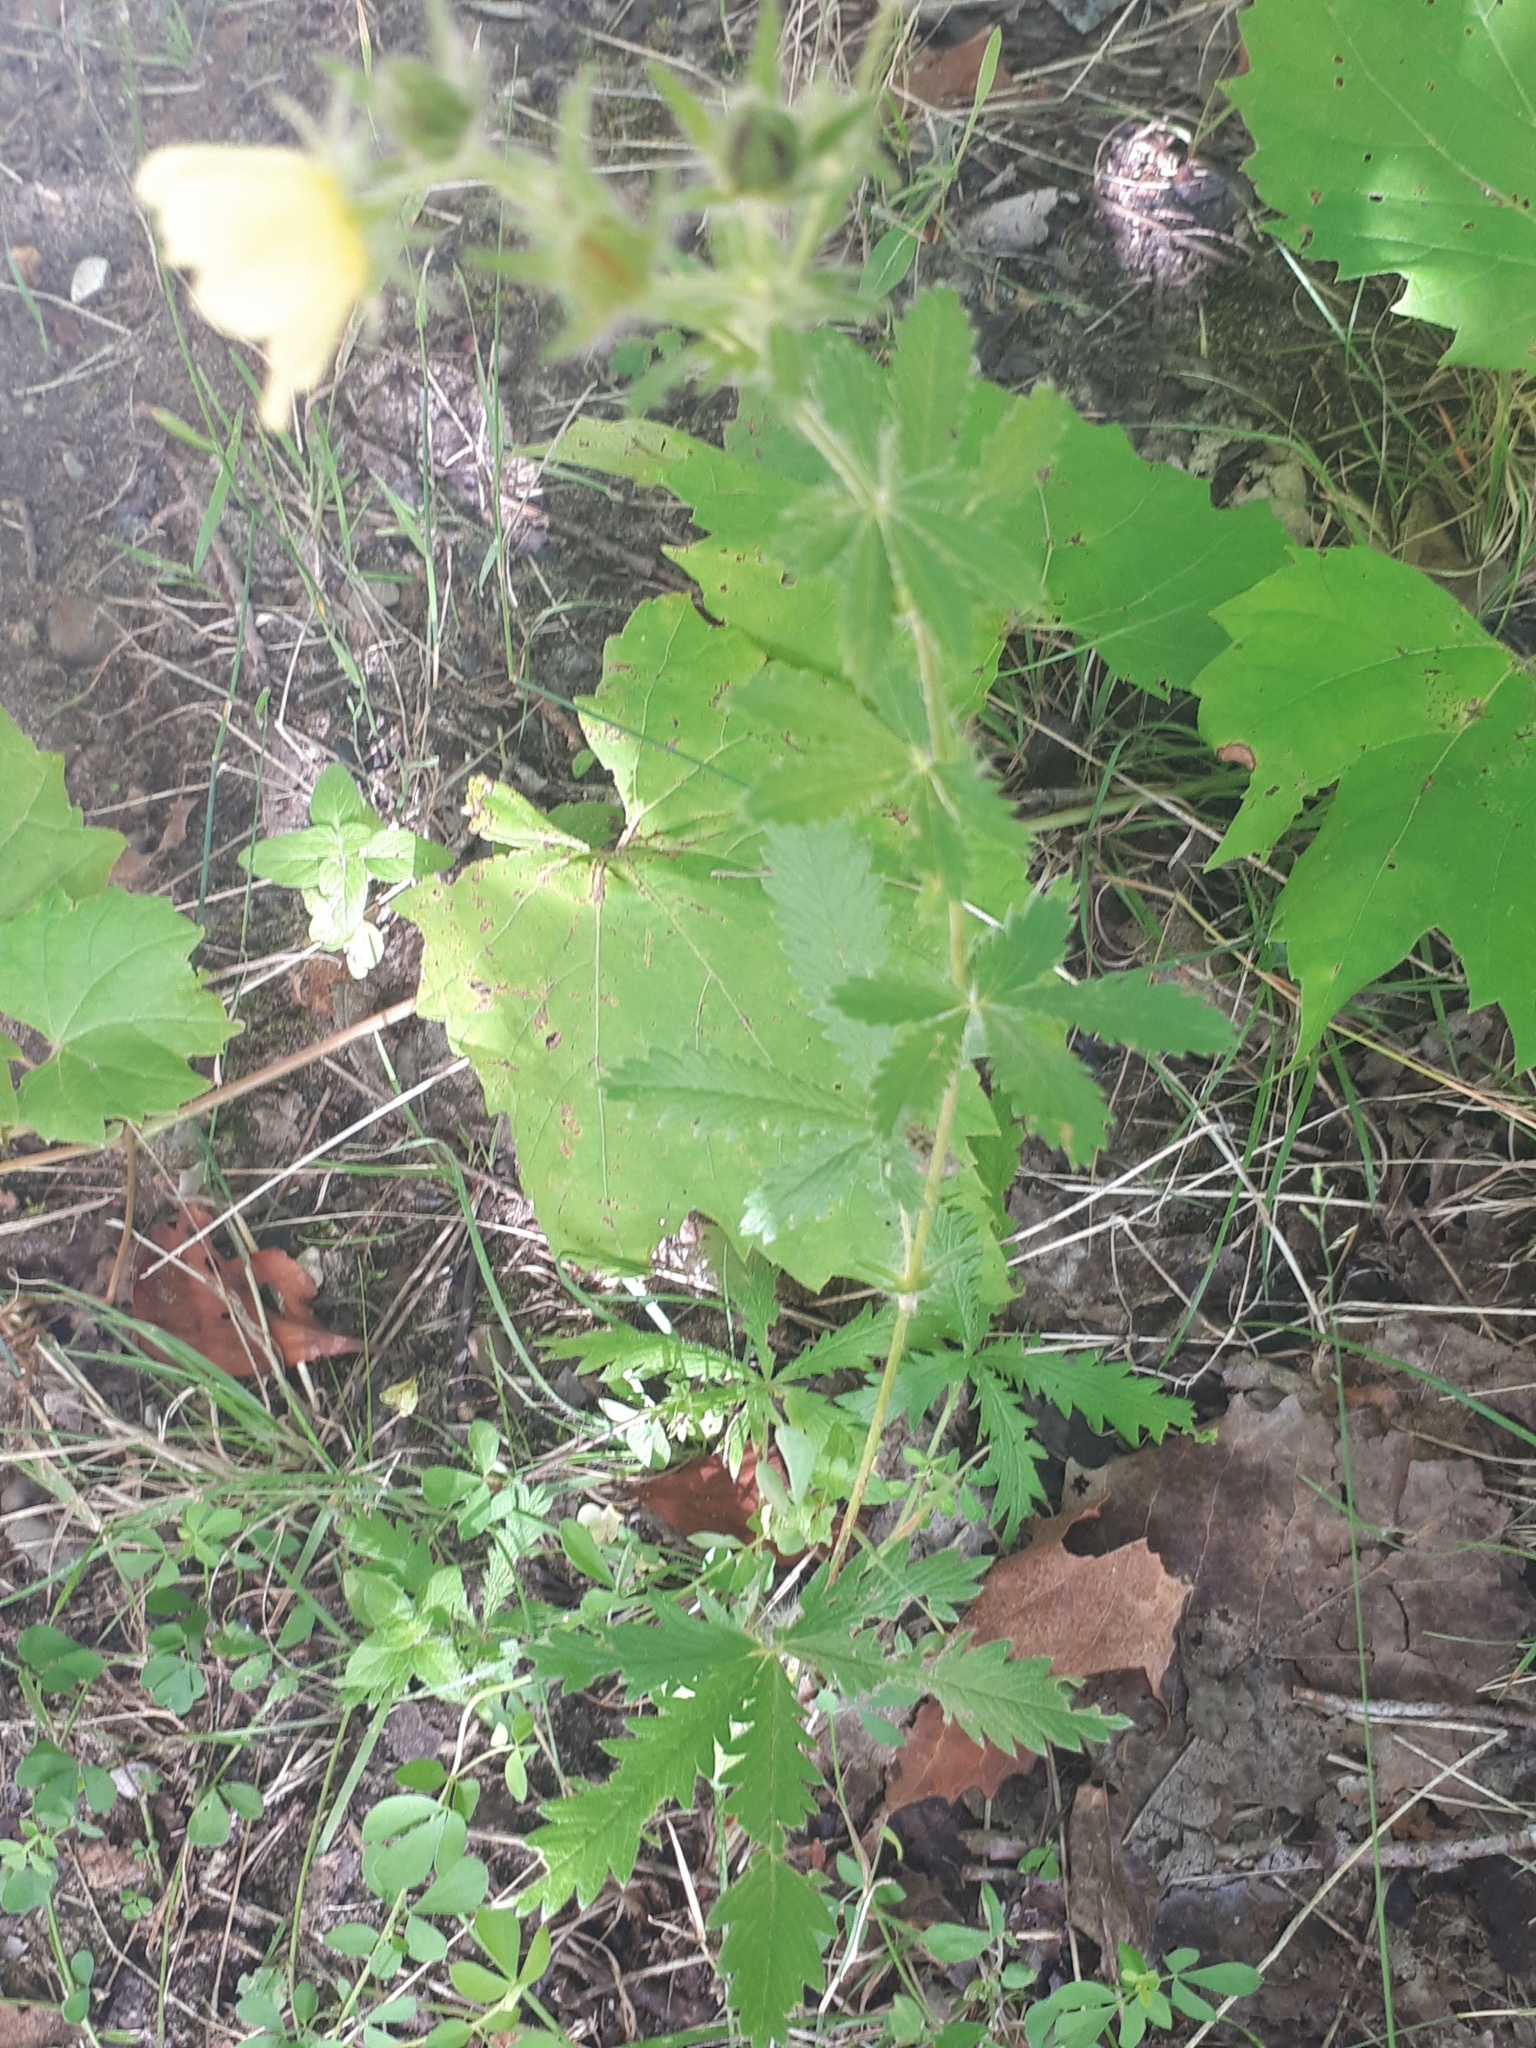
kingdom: Plantae
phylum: Tracheophyta
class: Magnoliopsida
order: Rosales
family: Rosaceae
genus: Potentilla
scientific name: Potentilla recta
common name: Sulphur cinquefoil
